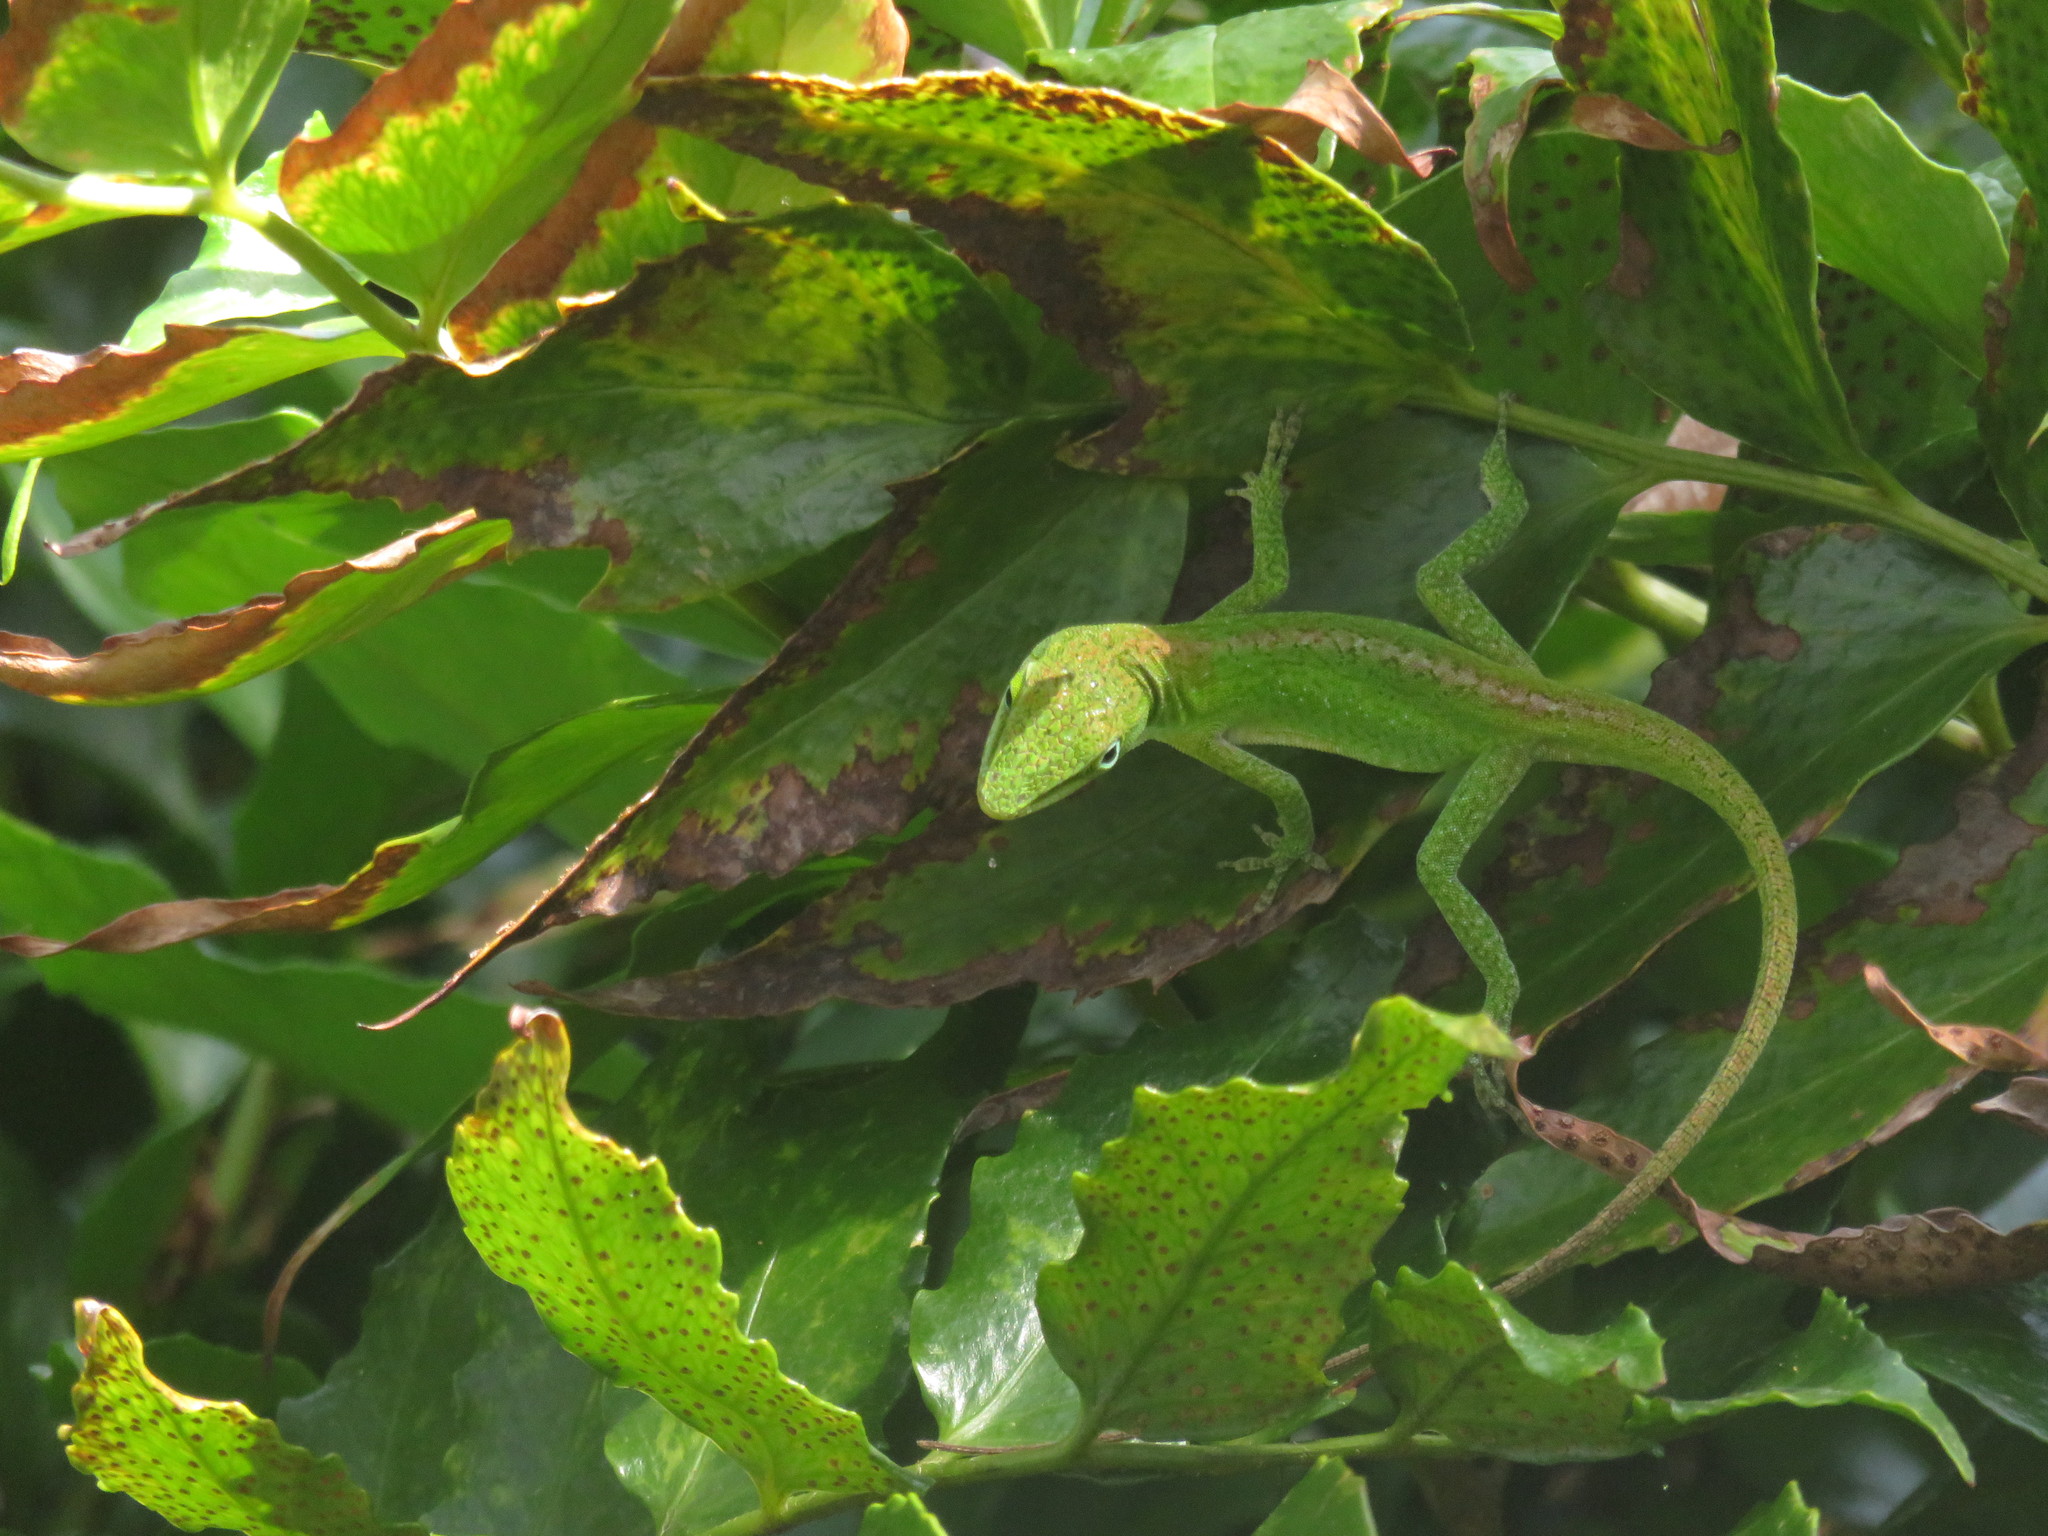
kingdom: Animalia
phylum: Chordata
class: Squamata
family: Dactyloidae
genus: Anolis
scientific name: Anolis carolinensis
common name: Green anole
